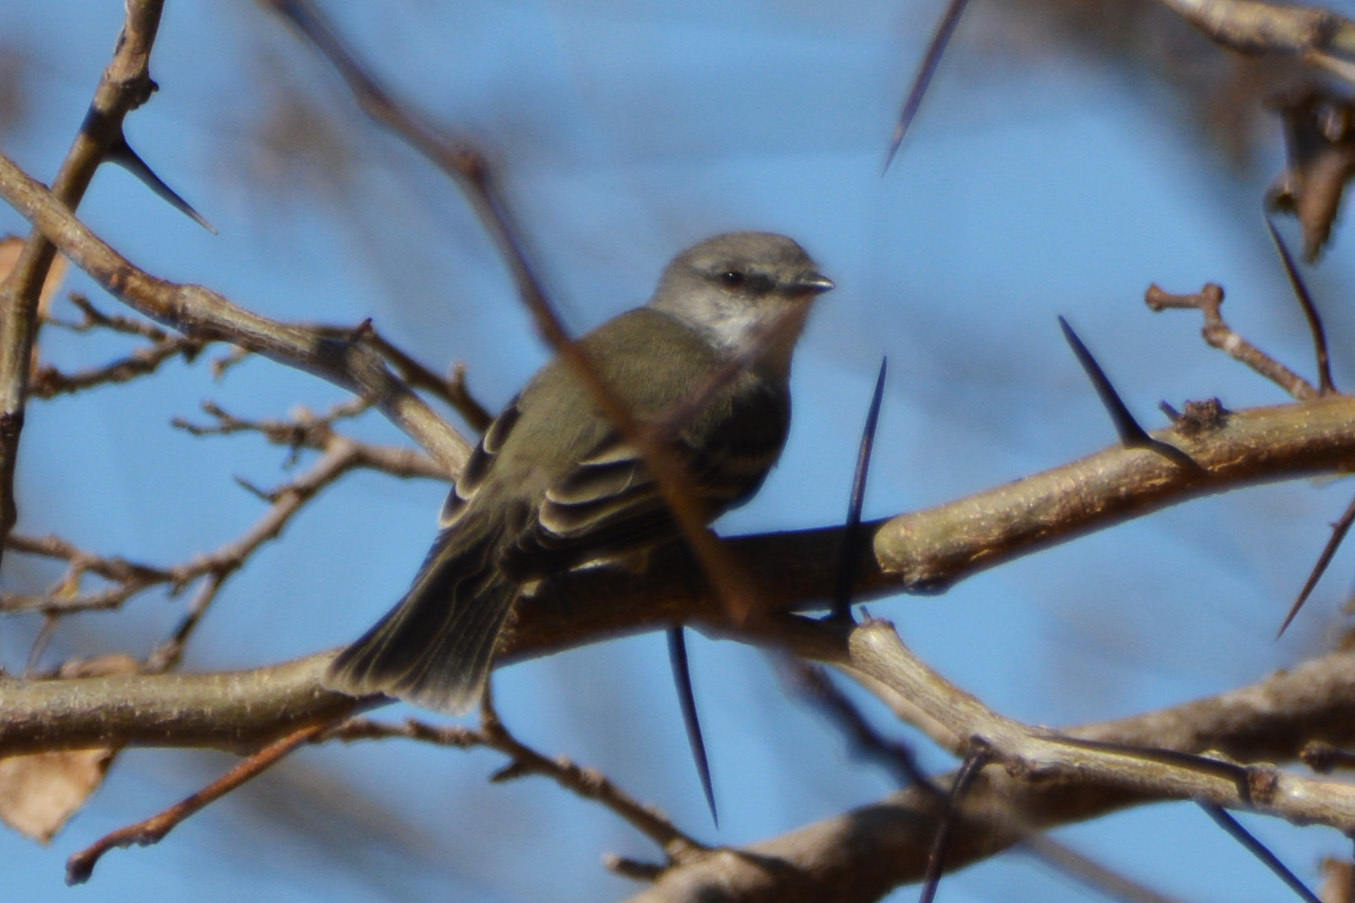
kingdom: Animalia
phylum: Chordata
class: Aves
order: Passeriformes
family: Tyrannidae
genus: Suiriri
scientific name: Suiriri suiriri
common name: Suiriri flycatcher
